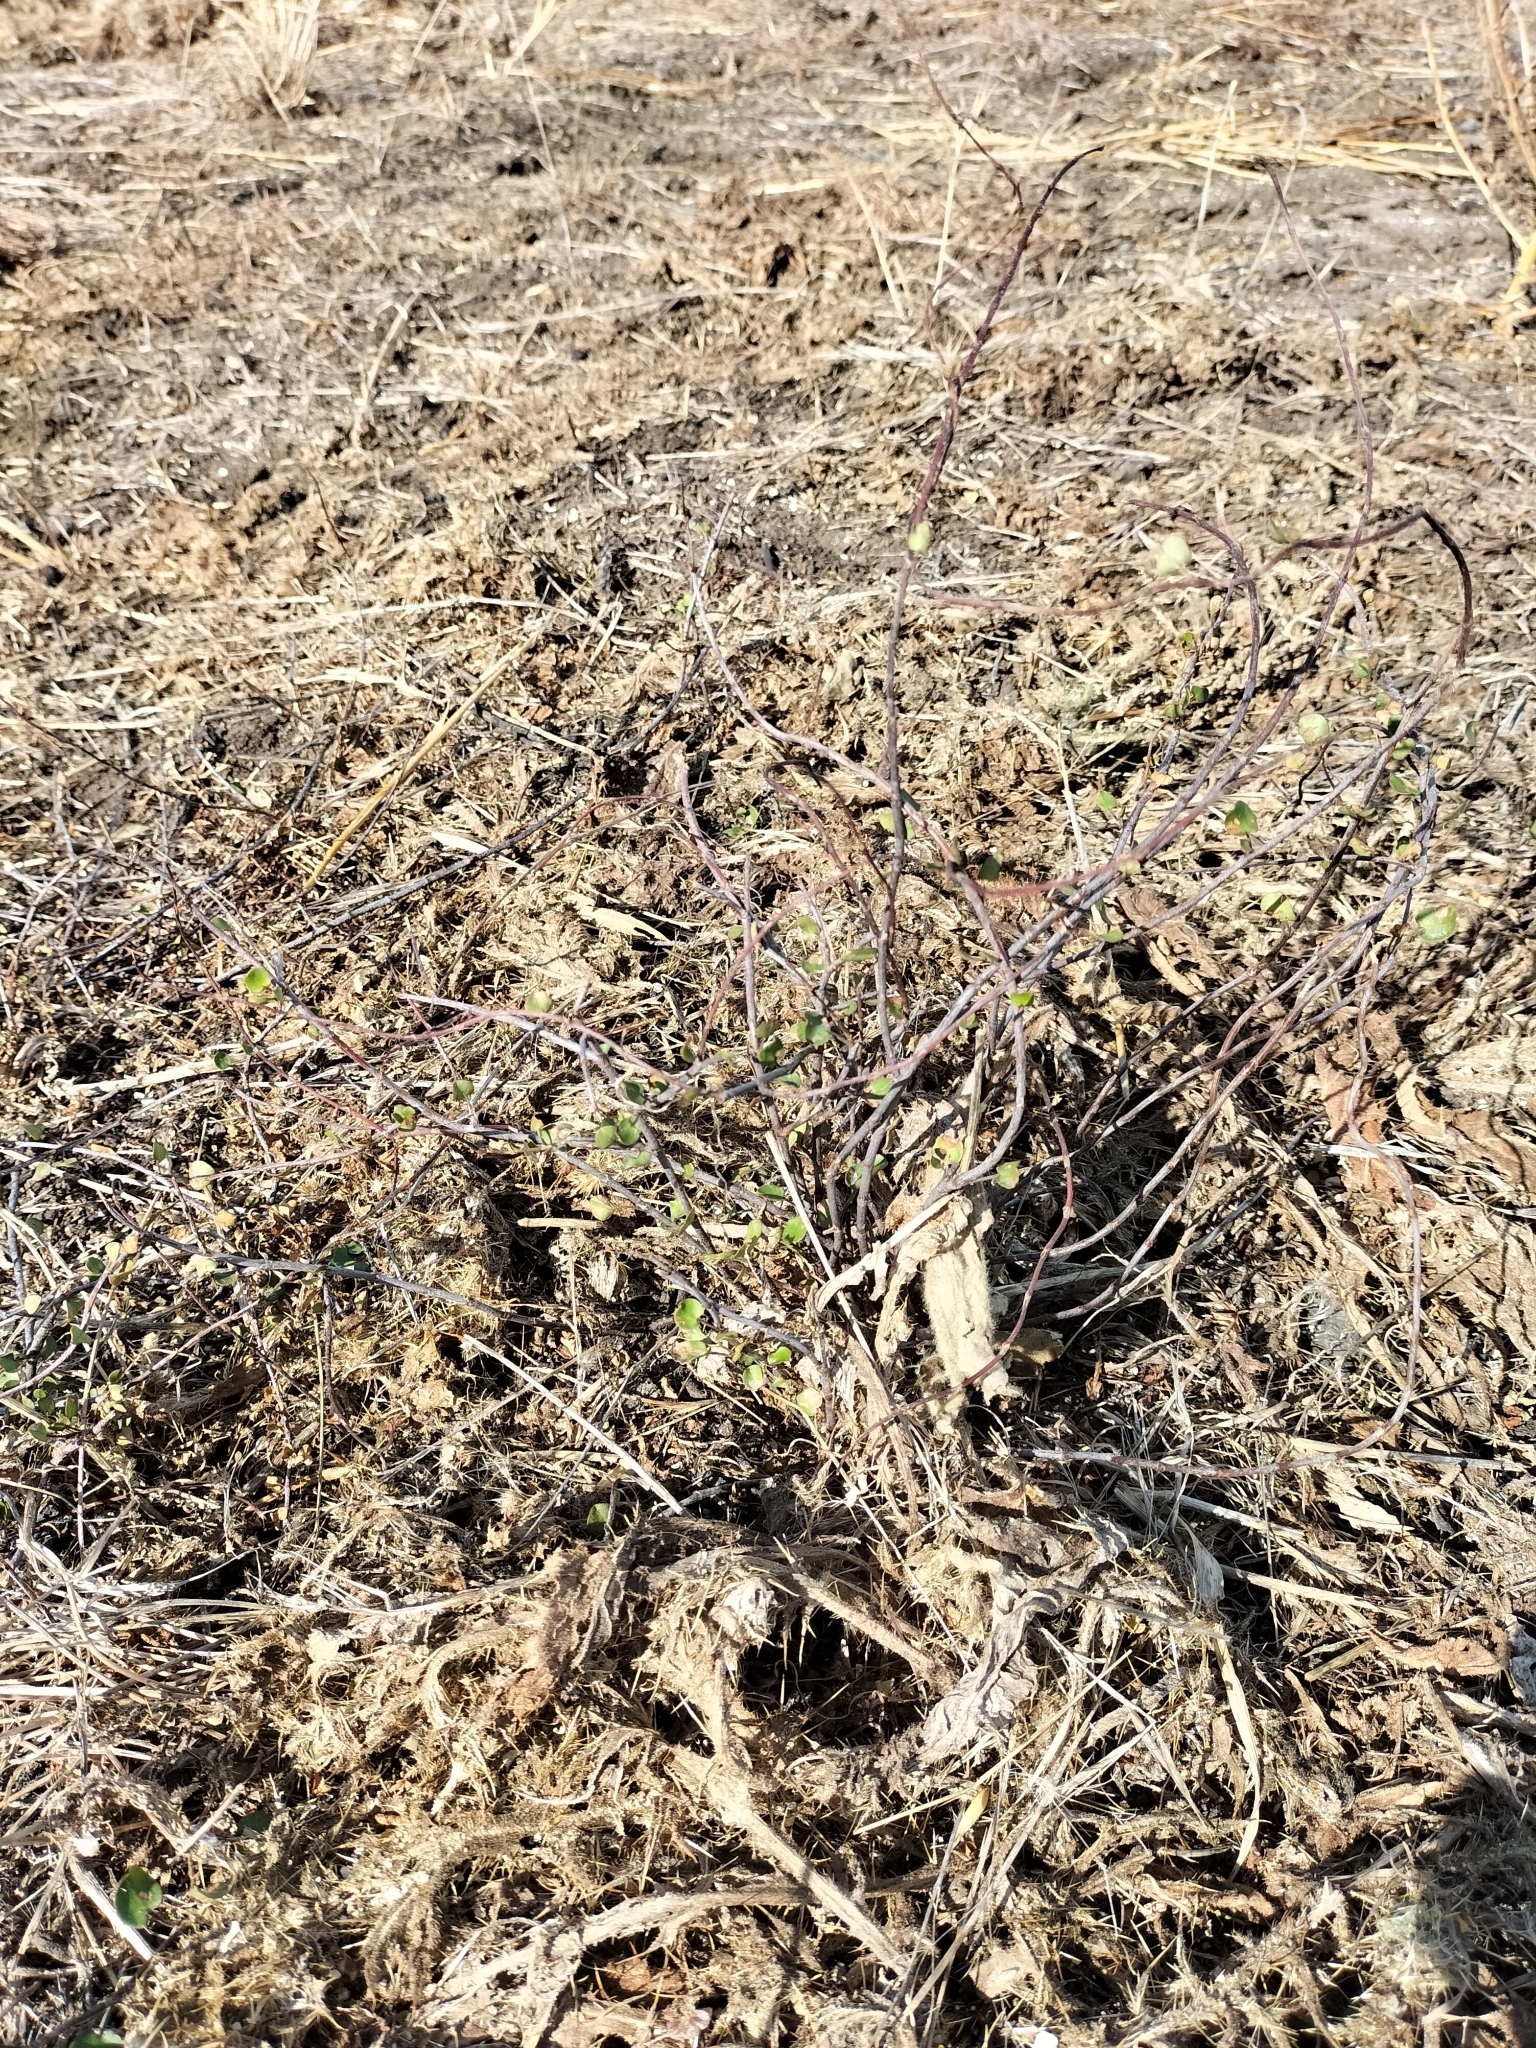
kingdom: Plantae
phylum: Tracheophyta
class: Magnoliopsida
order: Caryophyllales
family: Polygonaceae
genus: Muehlenbeckia
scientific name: Muehlenbeckia complexa
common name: Wireplant
